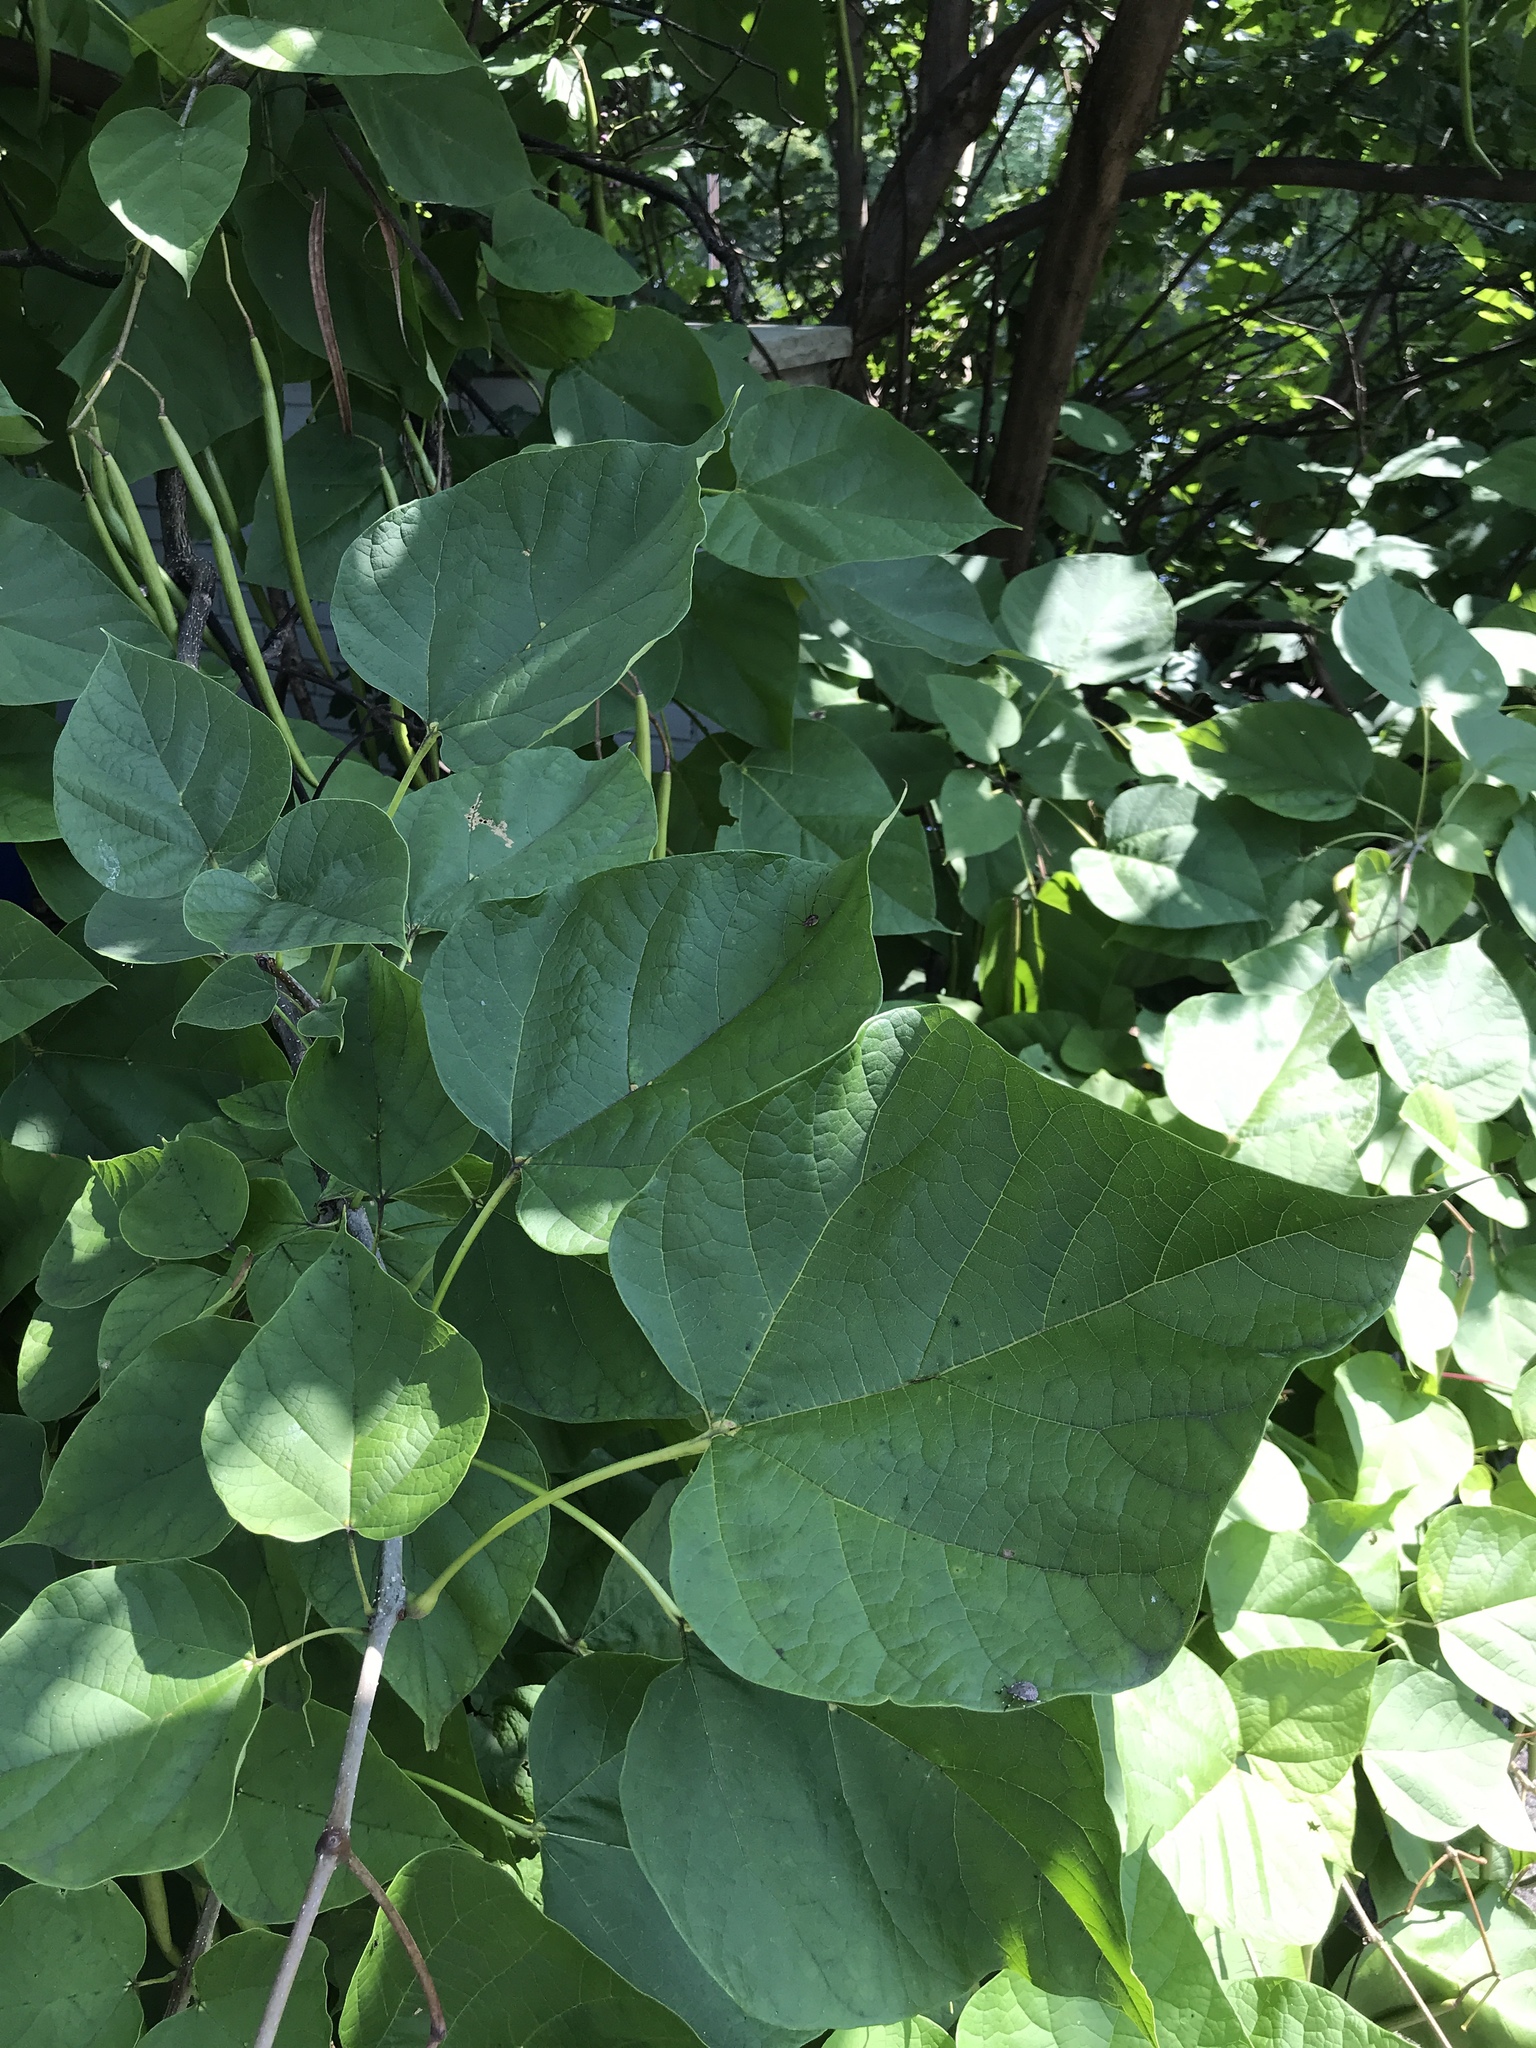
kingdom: Plantae
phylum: Tracheophyta
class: Magnoliopsida
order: Lamiales
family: Bignoniaceae
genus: Catalpa
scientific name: Catalpa speciosa
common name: Northern catalpa
